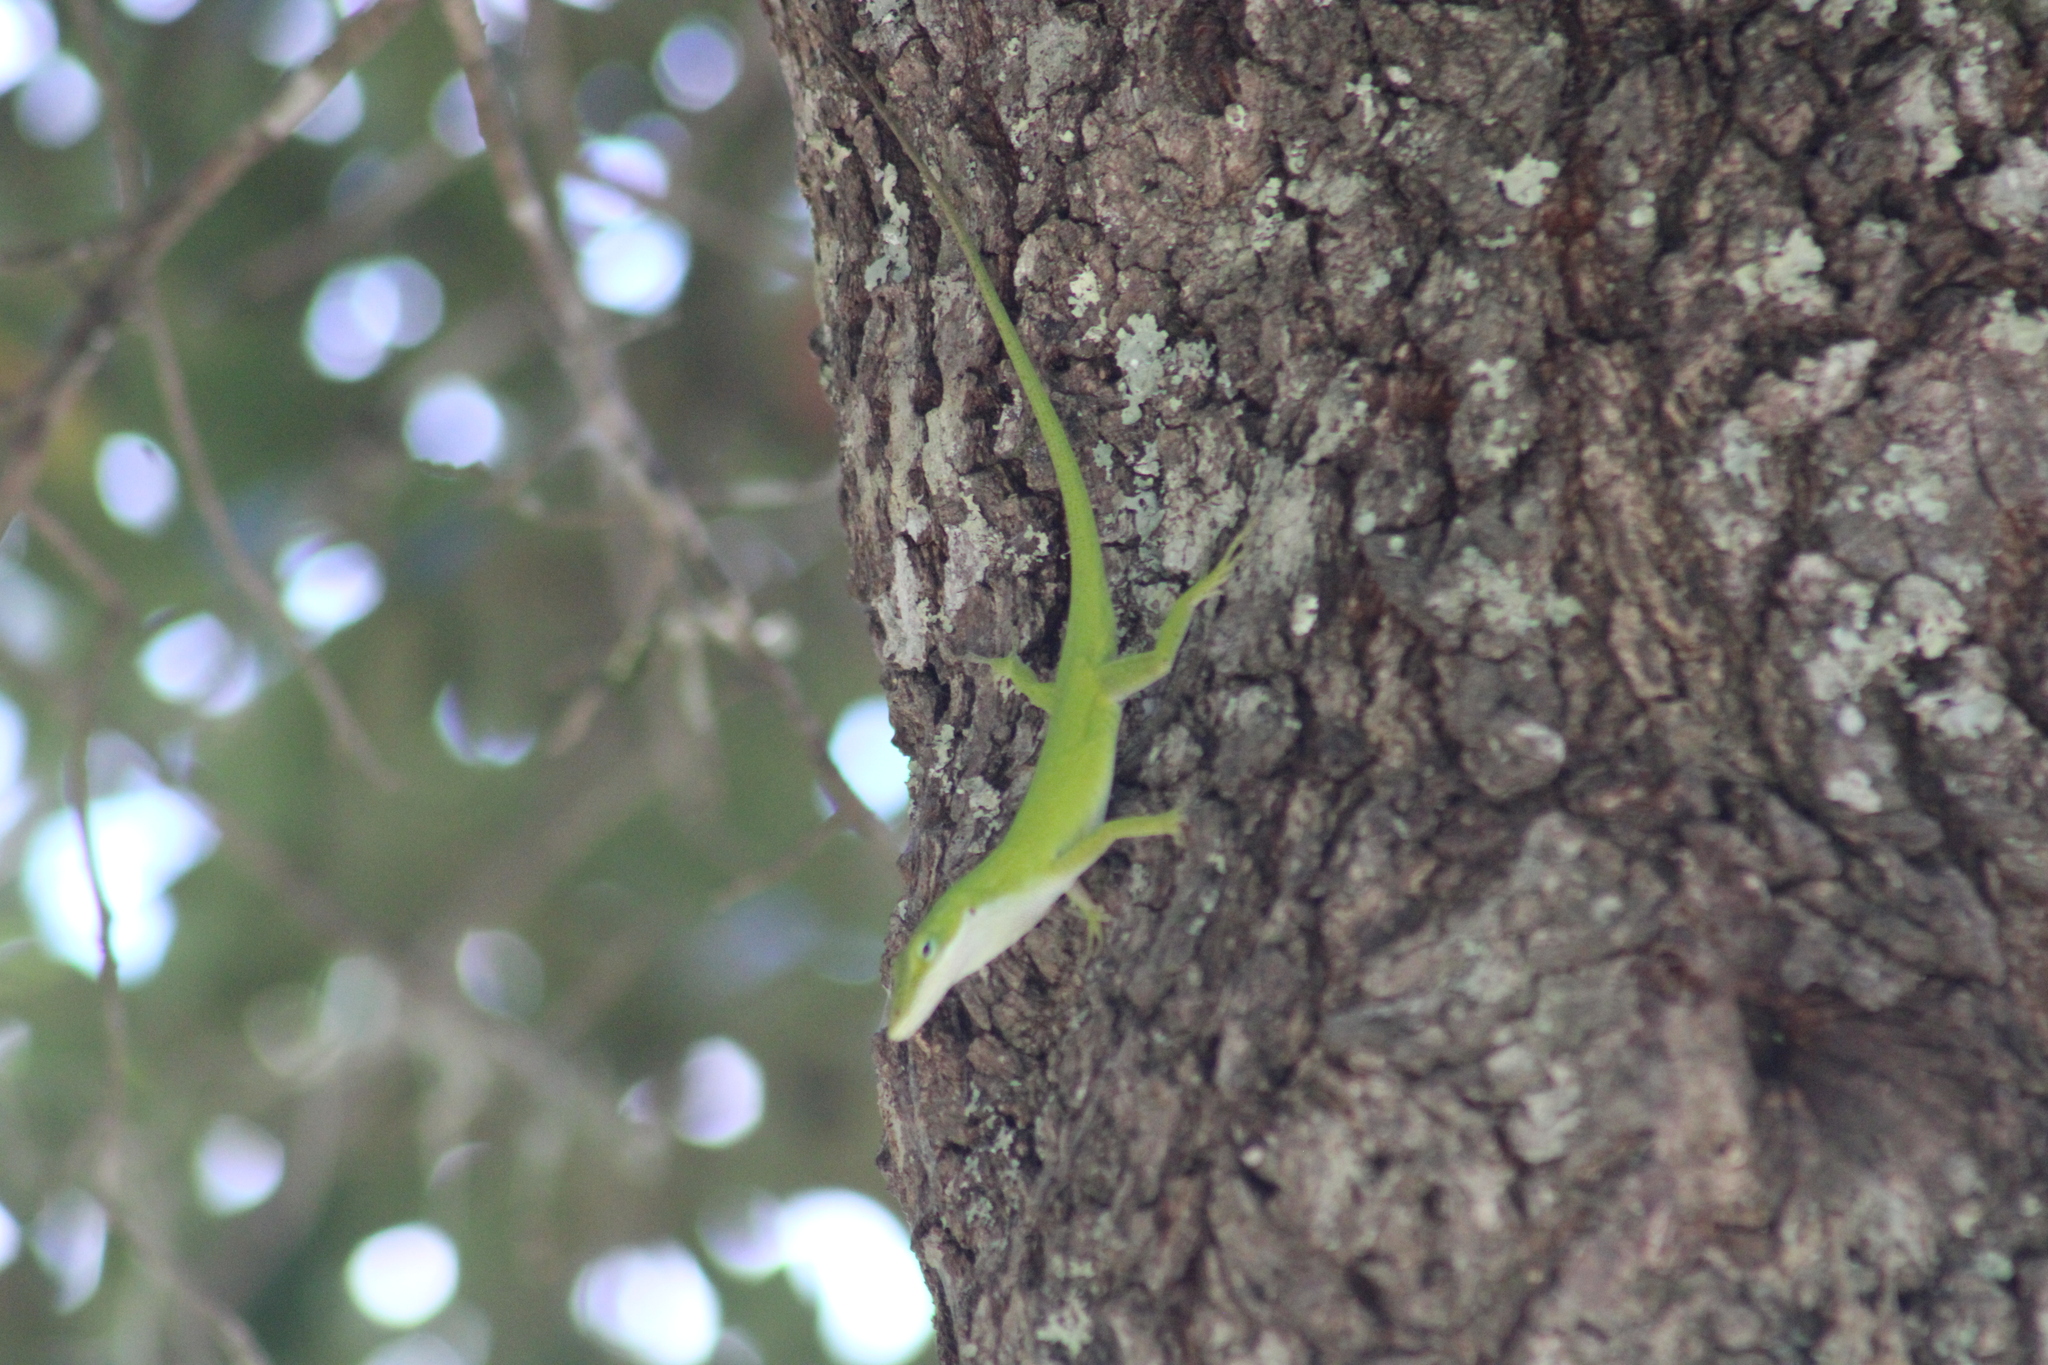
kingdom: Animalia
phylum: Chordata
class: Squamata
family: Dactyloidae
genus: Anolis
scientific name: Anolis carolinensis
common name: Green anole
